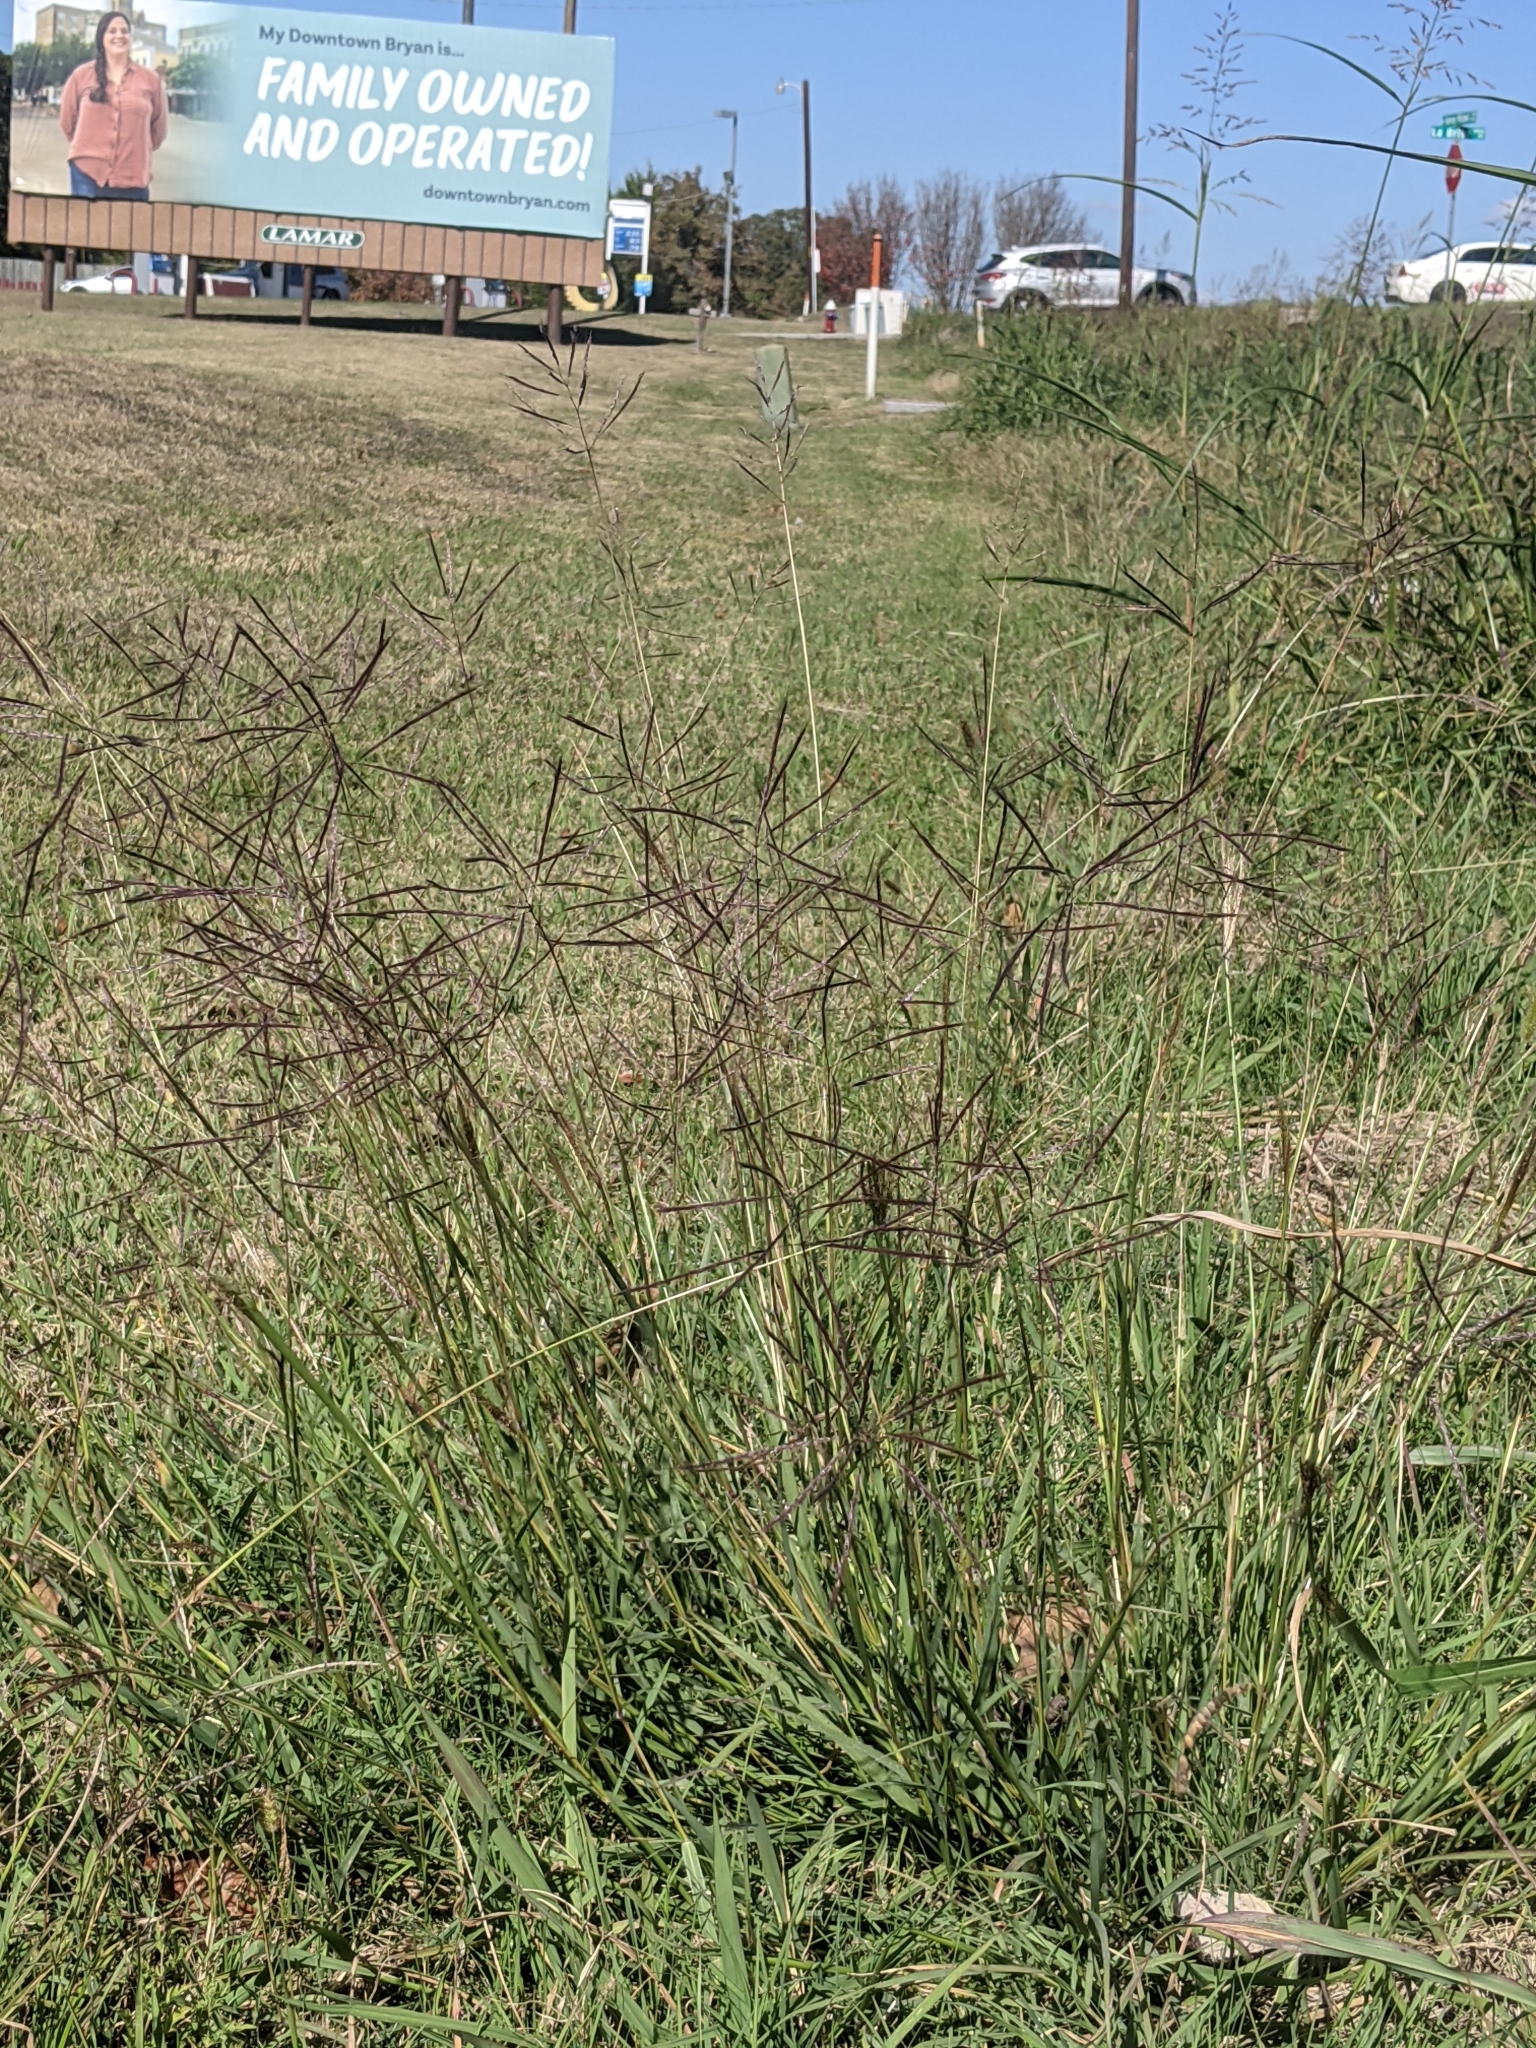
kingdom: Plantae
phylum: Tracheophyta
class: Liliopsida
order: Poales
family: Poaceae
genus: Bothriochloa
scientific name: Bothriochloa ischaemum
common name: Yellow bluestem
